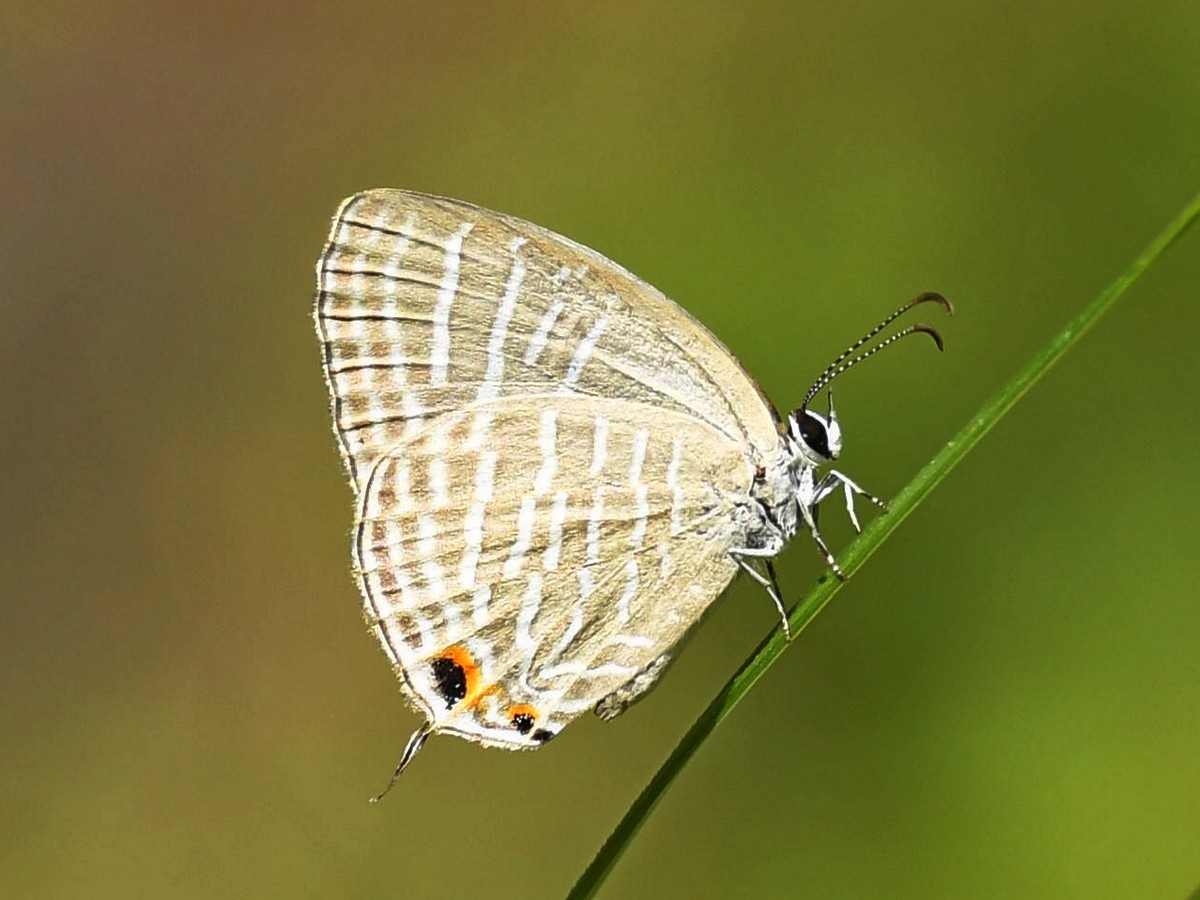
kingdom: Animalia
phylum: Arthropoda
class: Insecta
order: Lepidoptera
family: Lycaenidae
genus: Jamides
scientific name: Jamides celeno
